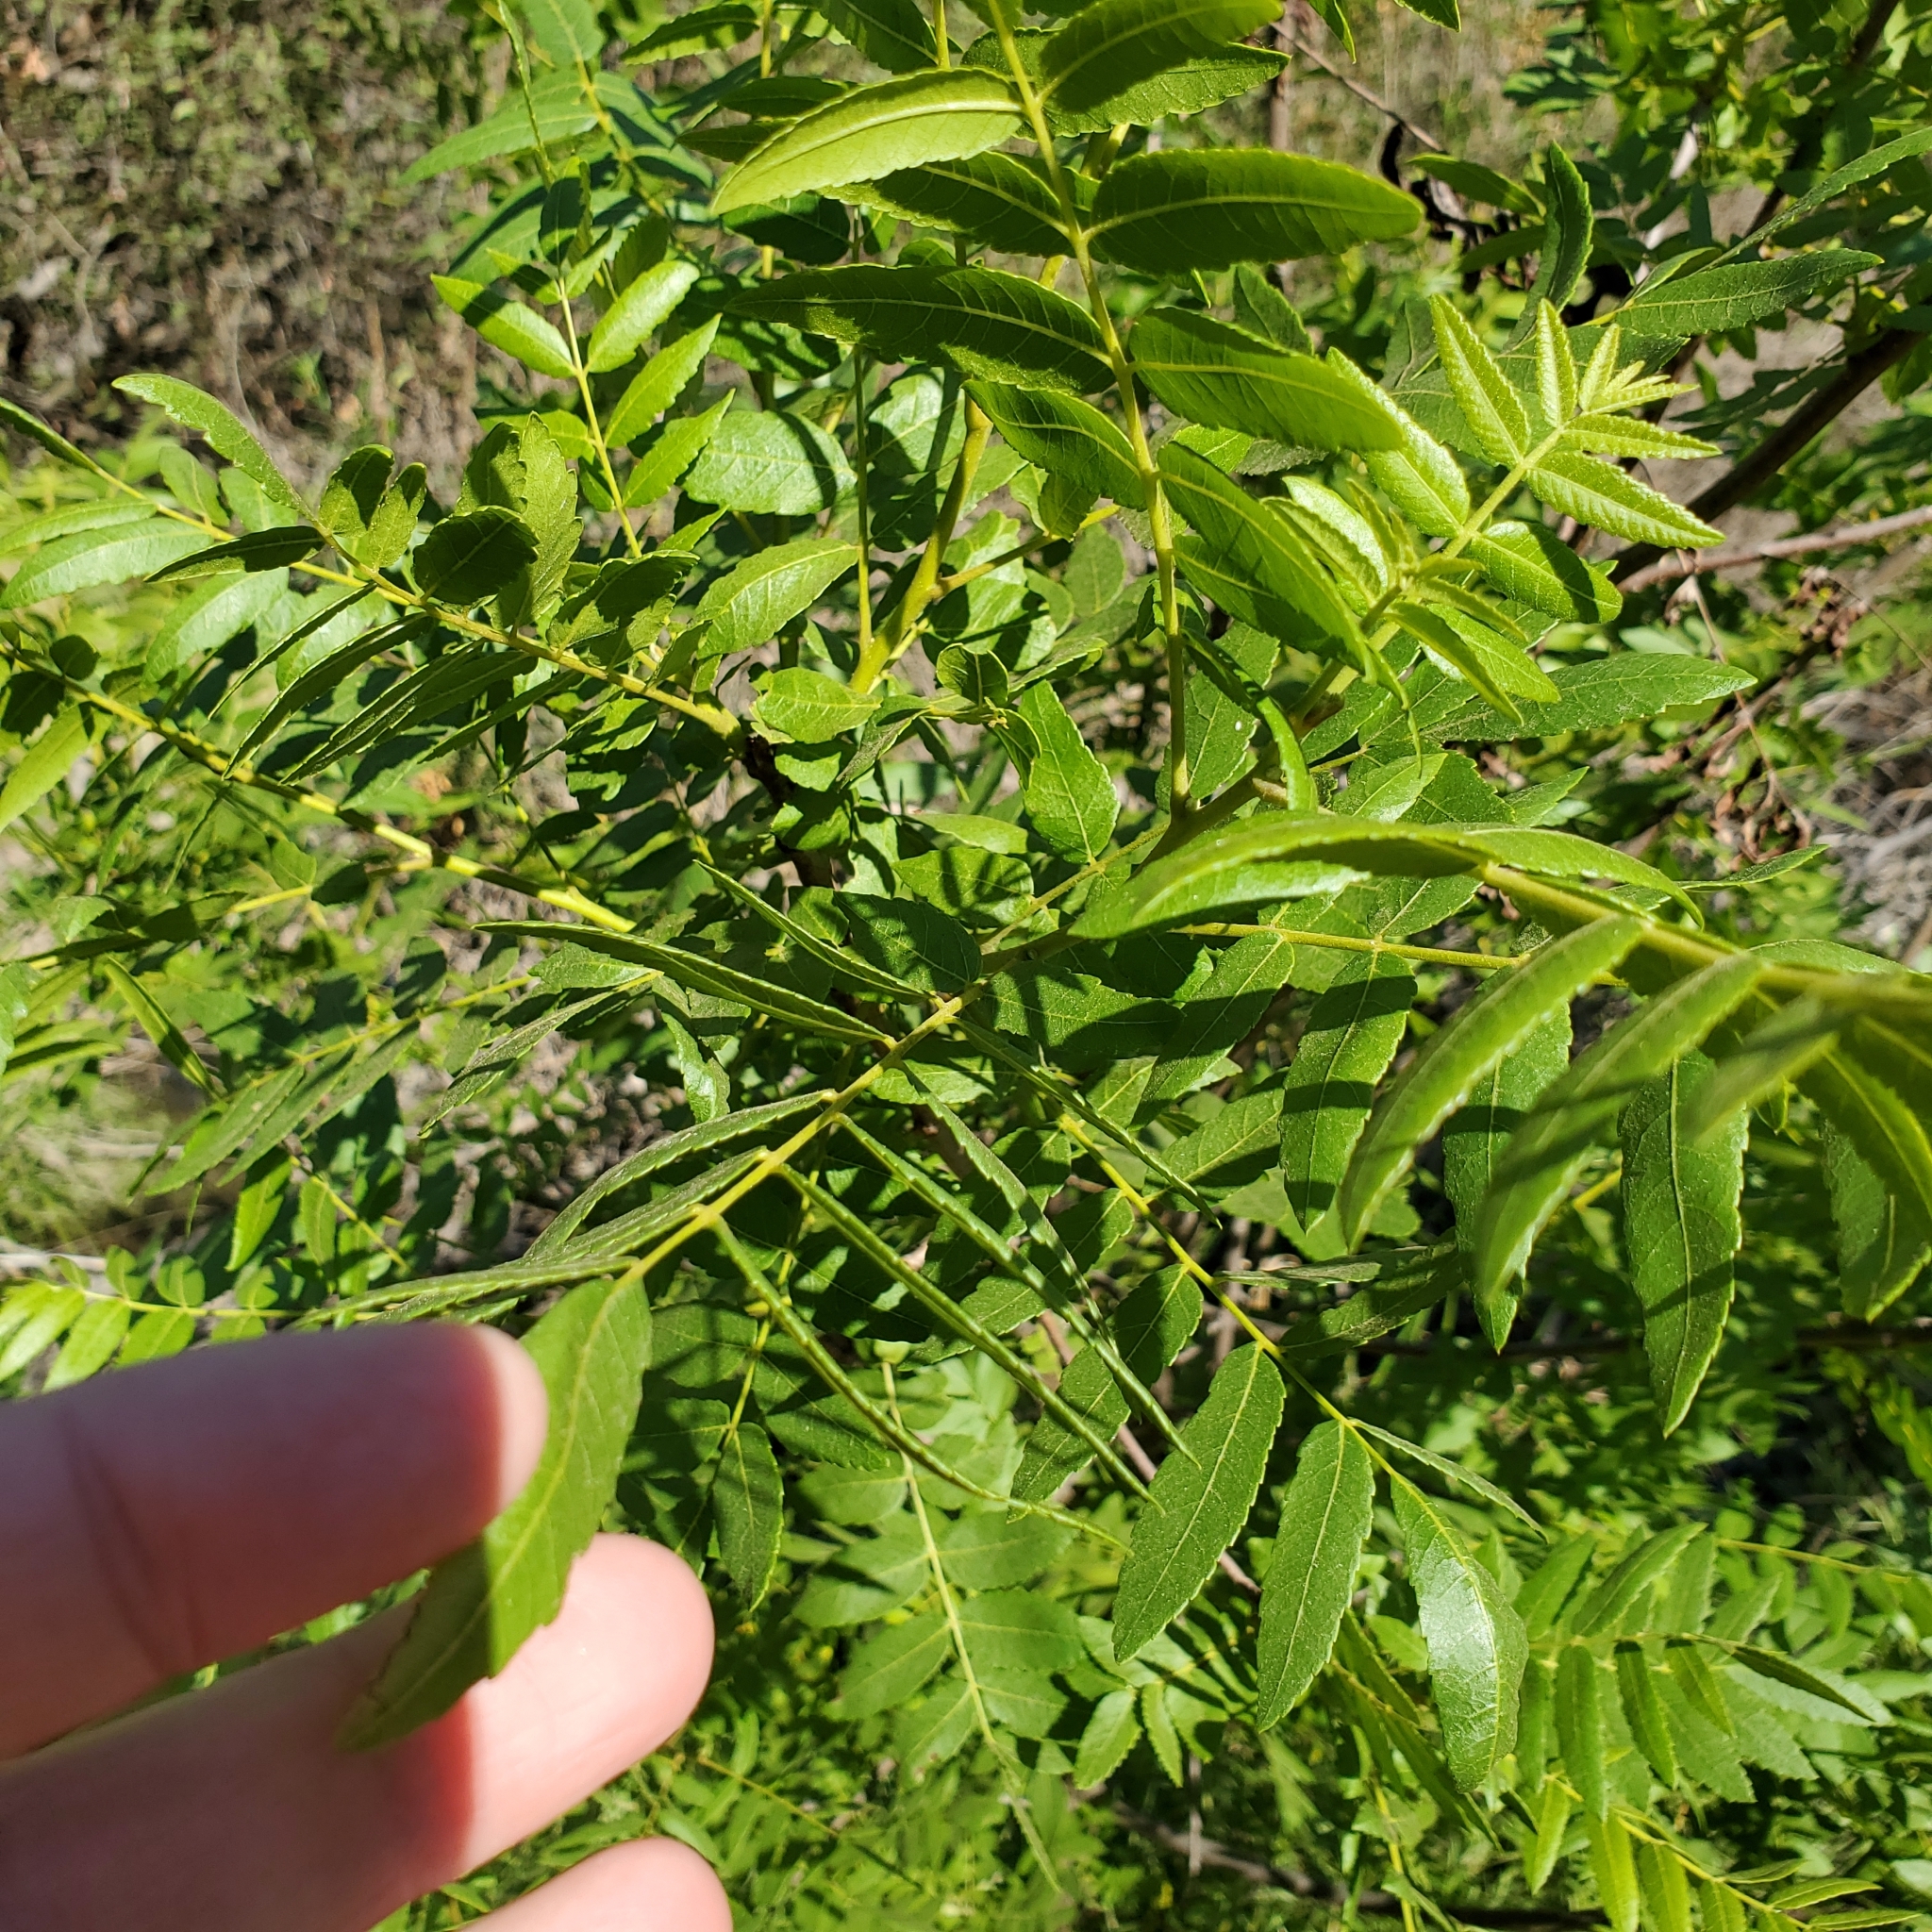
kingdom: Plantae
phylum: Tracheophyta
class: Magnoliopsida
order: Fagales
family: Juglandaceae
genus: Juglans
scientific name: Juglans californica
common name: Southern california black walnut
